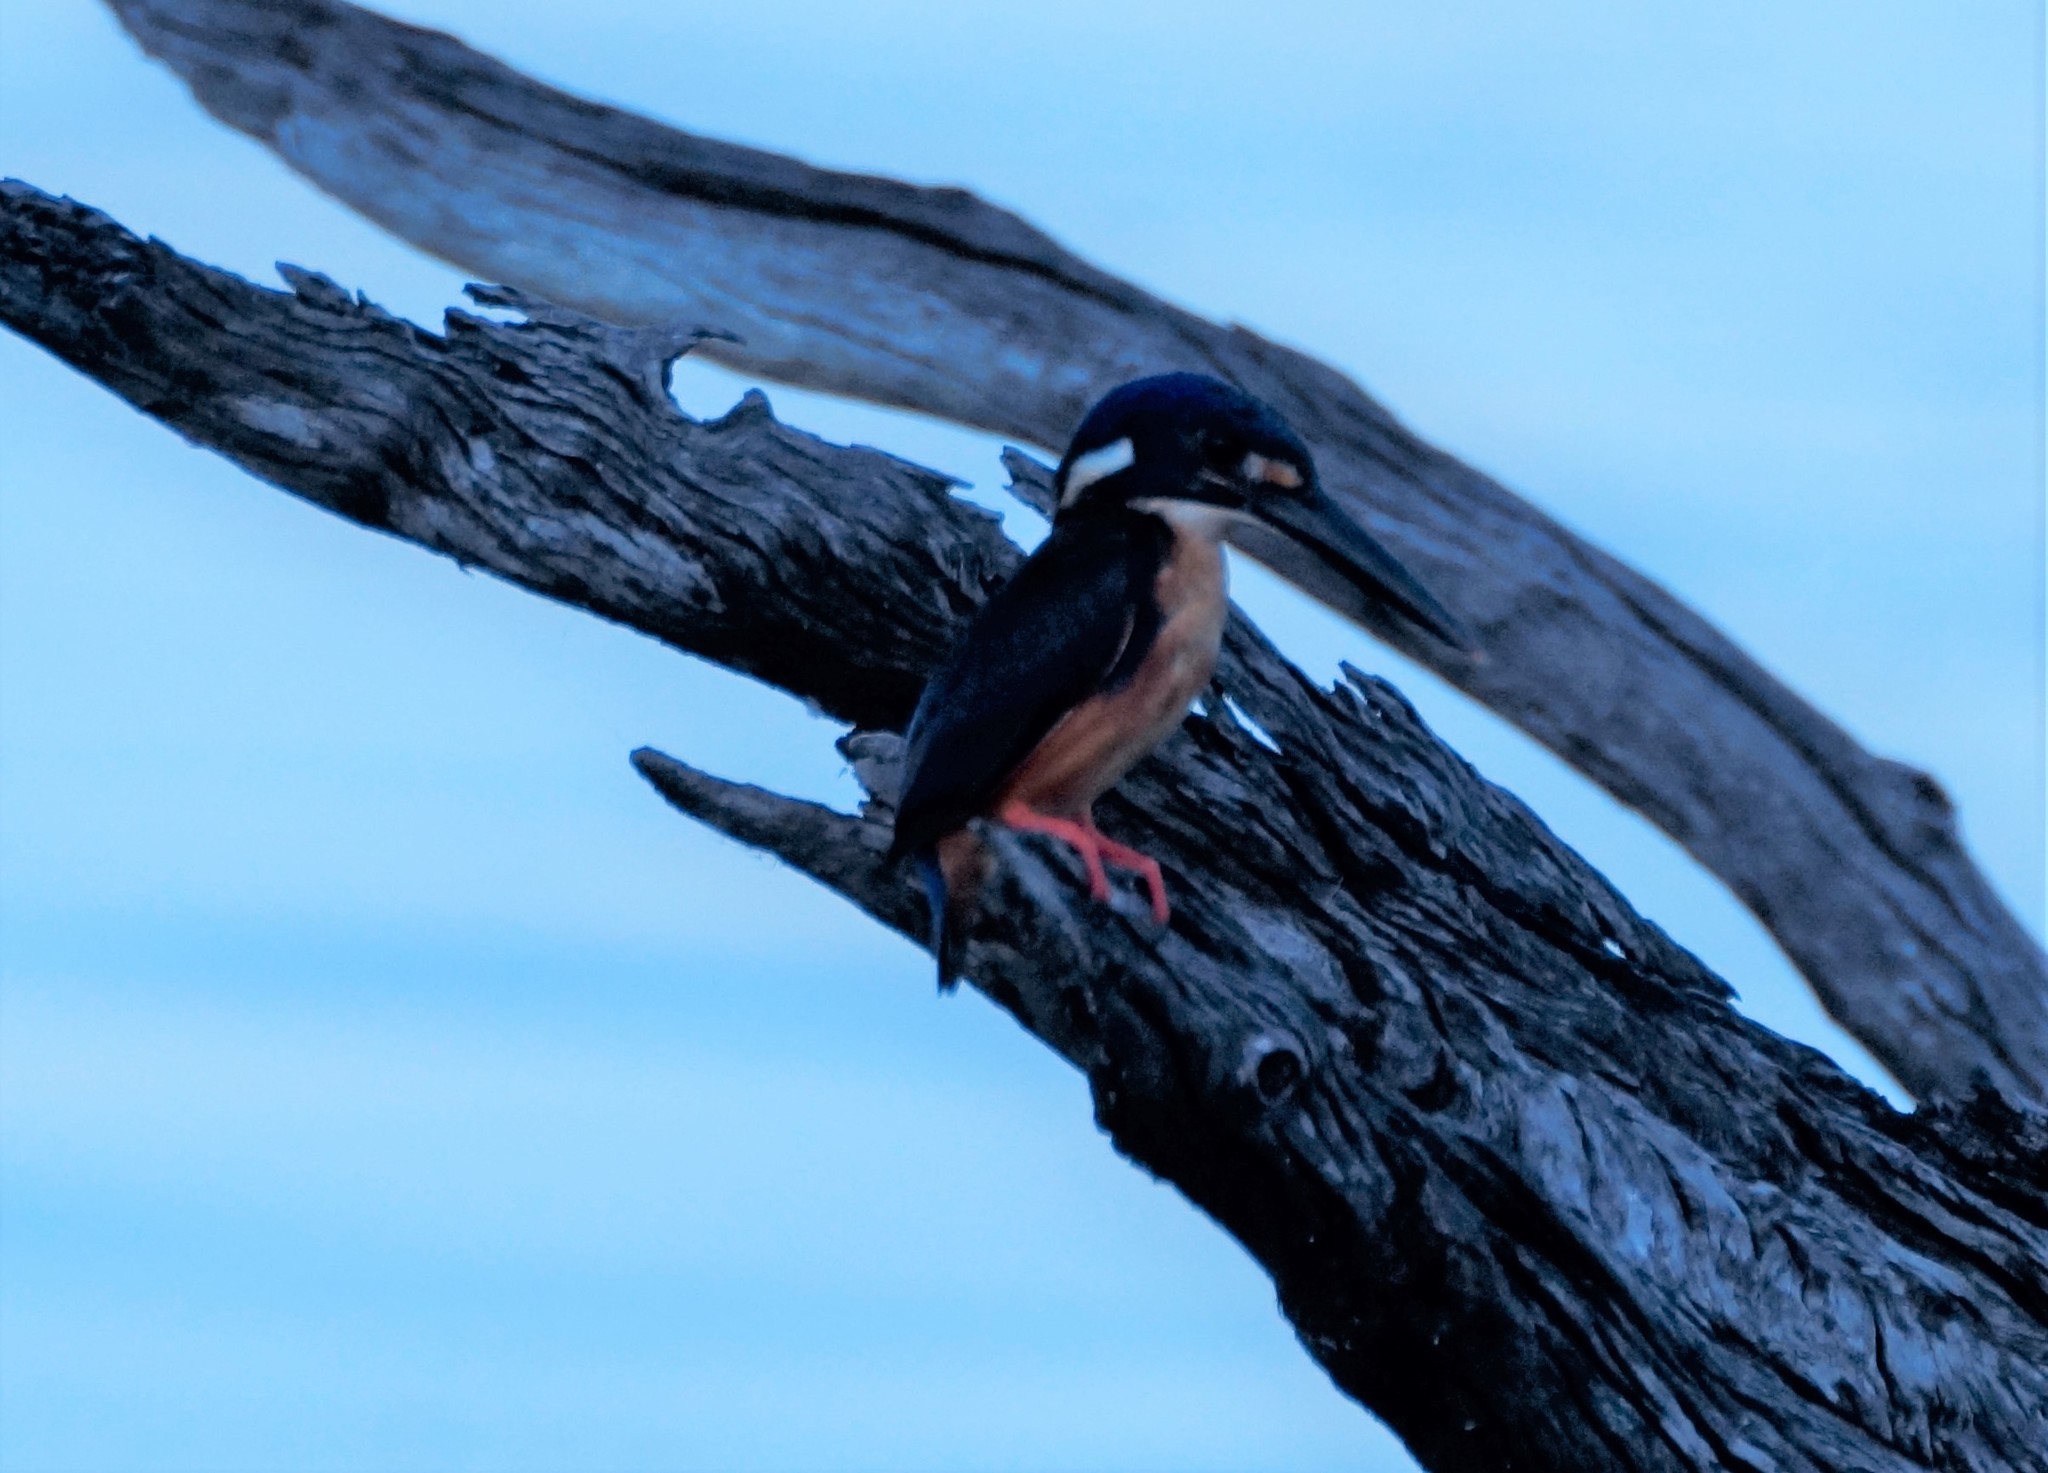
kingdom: Animalia
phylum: Chordata
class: Aves
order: Coraciiformes
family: Alcedinidae
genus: Ceyx
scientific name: Ceyx azureus
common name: Azure kingfisher
